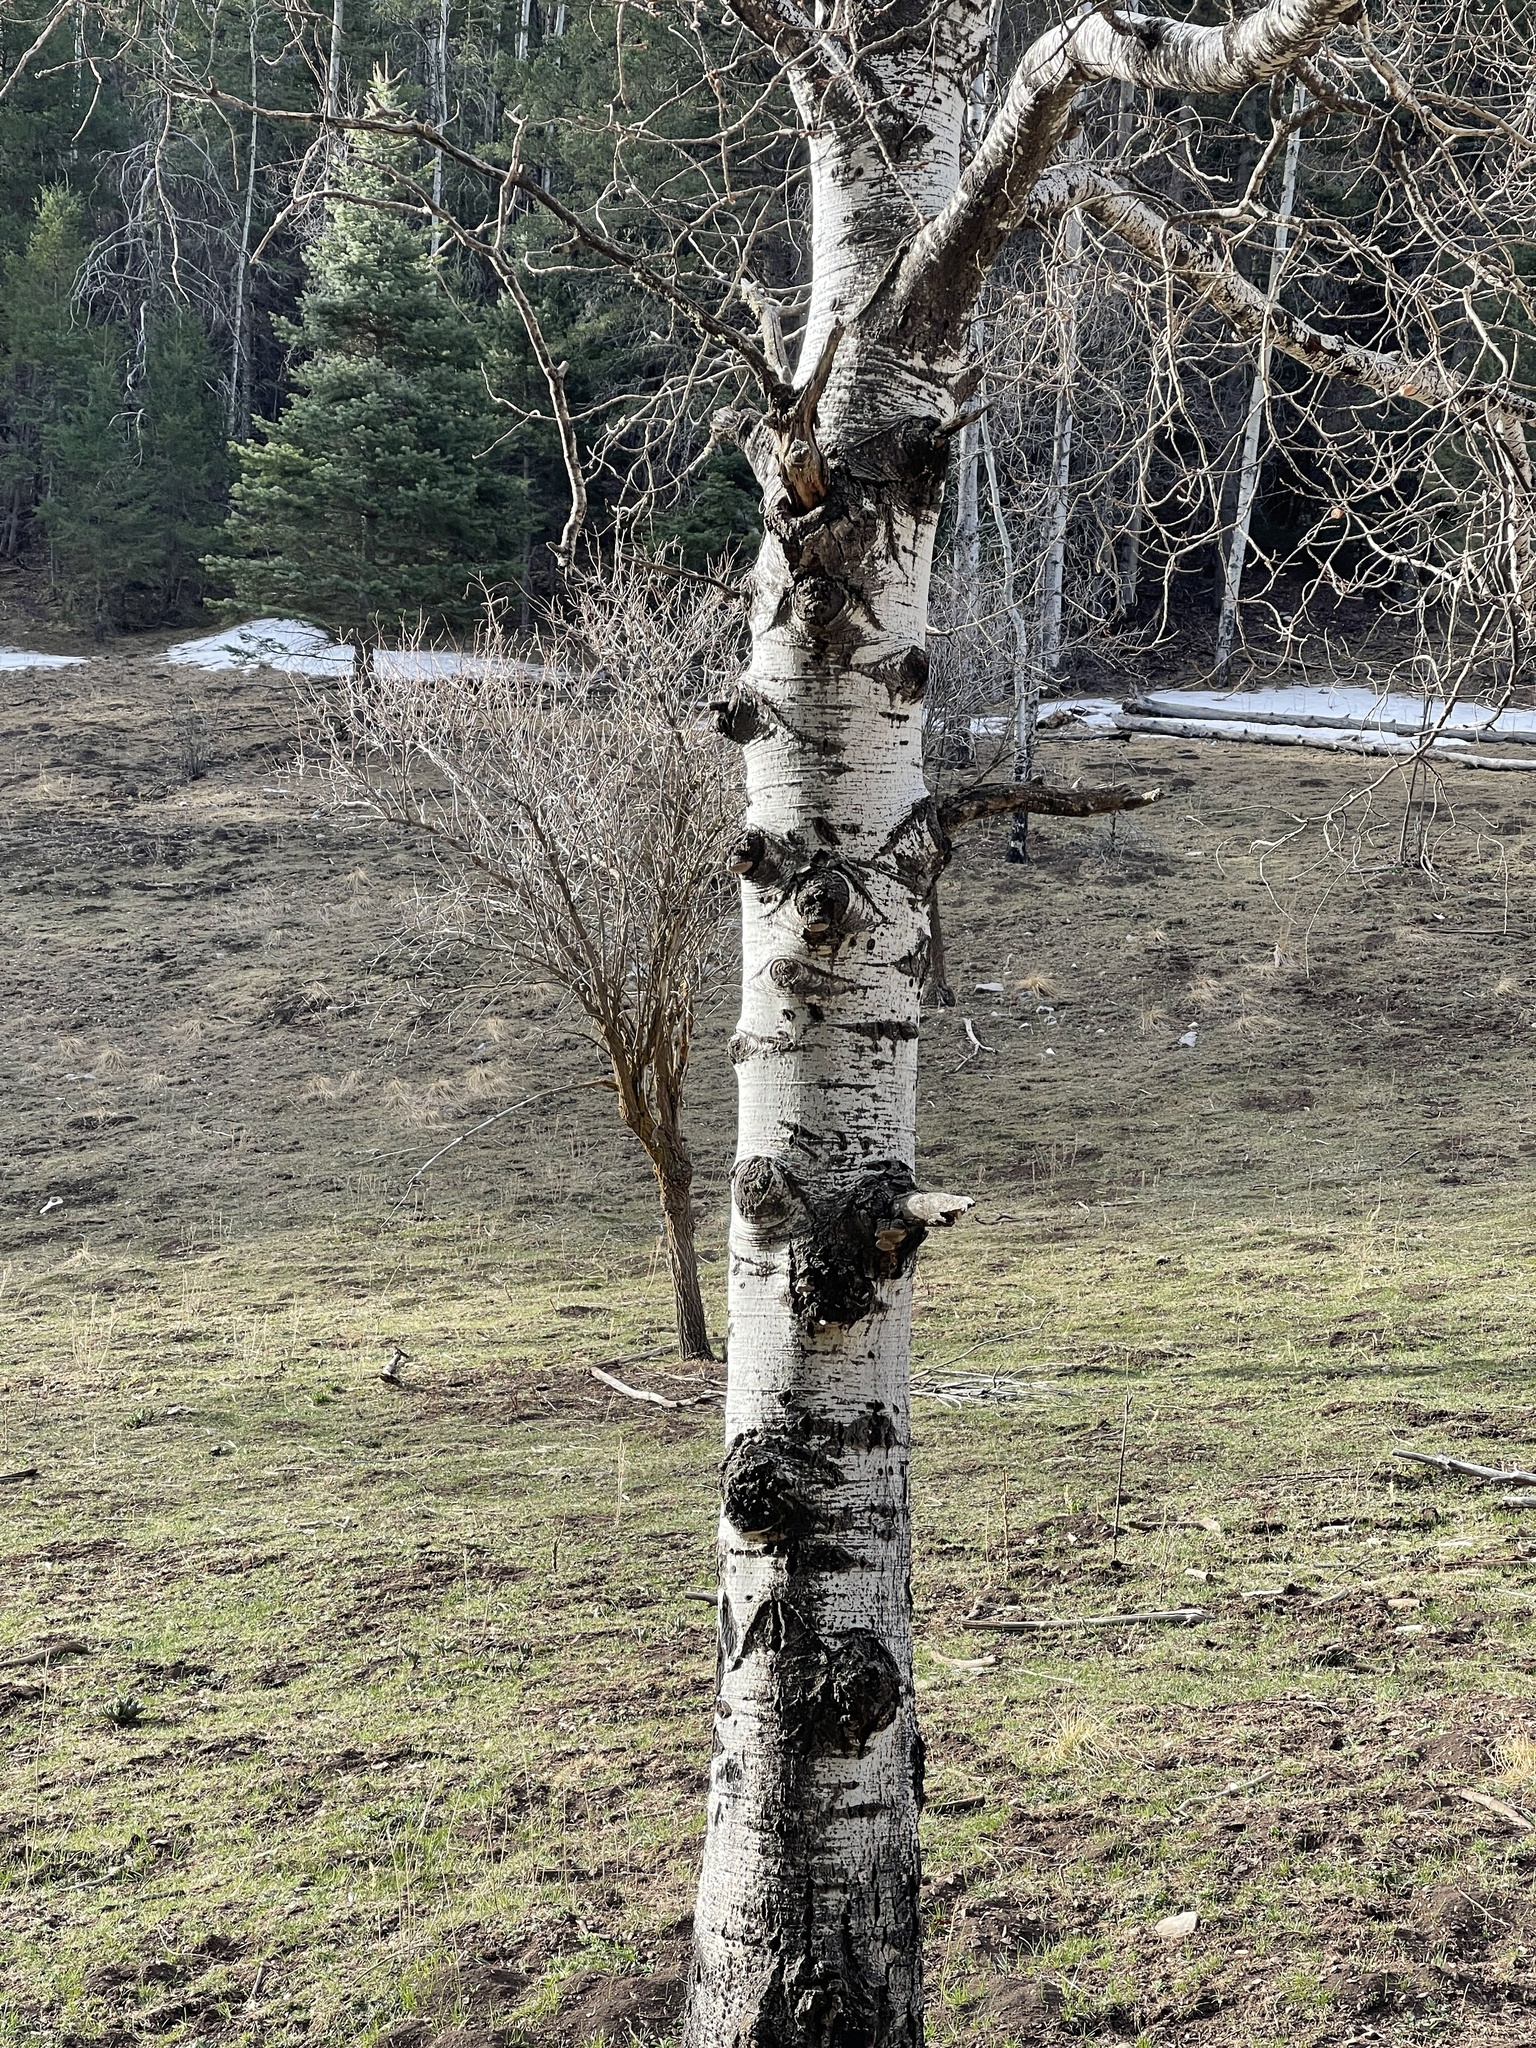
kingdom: Plantae
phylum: Tracheophyta
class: Magnoliopsida
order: Malpighiales
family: Salicaceae
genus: Populus
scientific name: Populus tremuloides
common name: Quaking aspen
